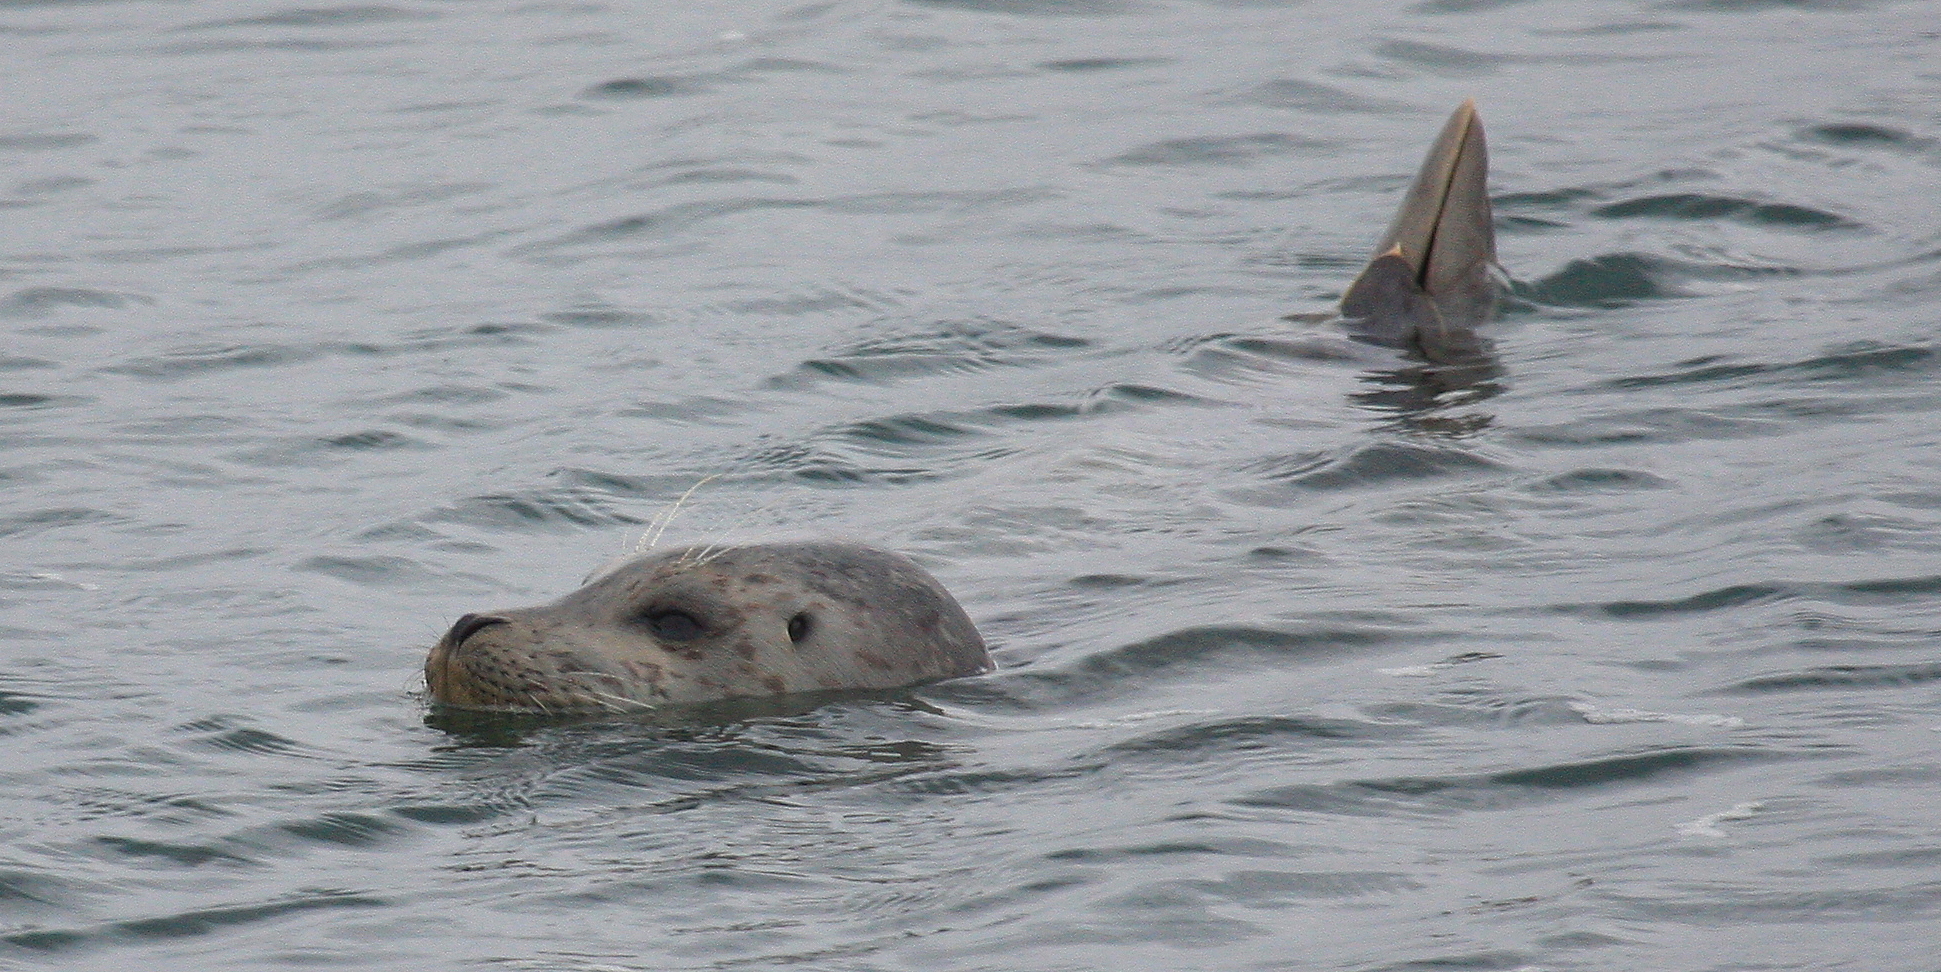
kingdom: Animalia
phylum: Chordata
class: Mammalia
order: Carnivora
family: Phocidae
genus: Phoca
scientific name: Phoca vitulina
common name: Harbor seal
